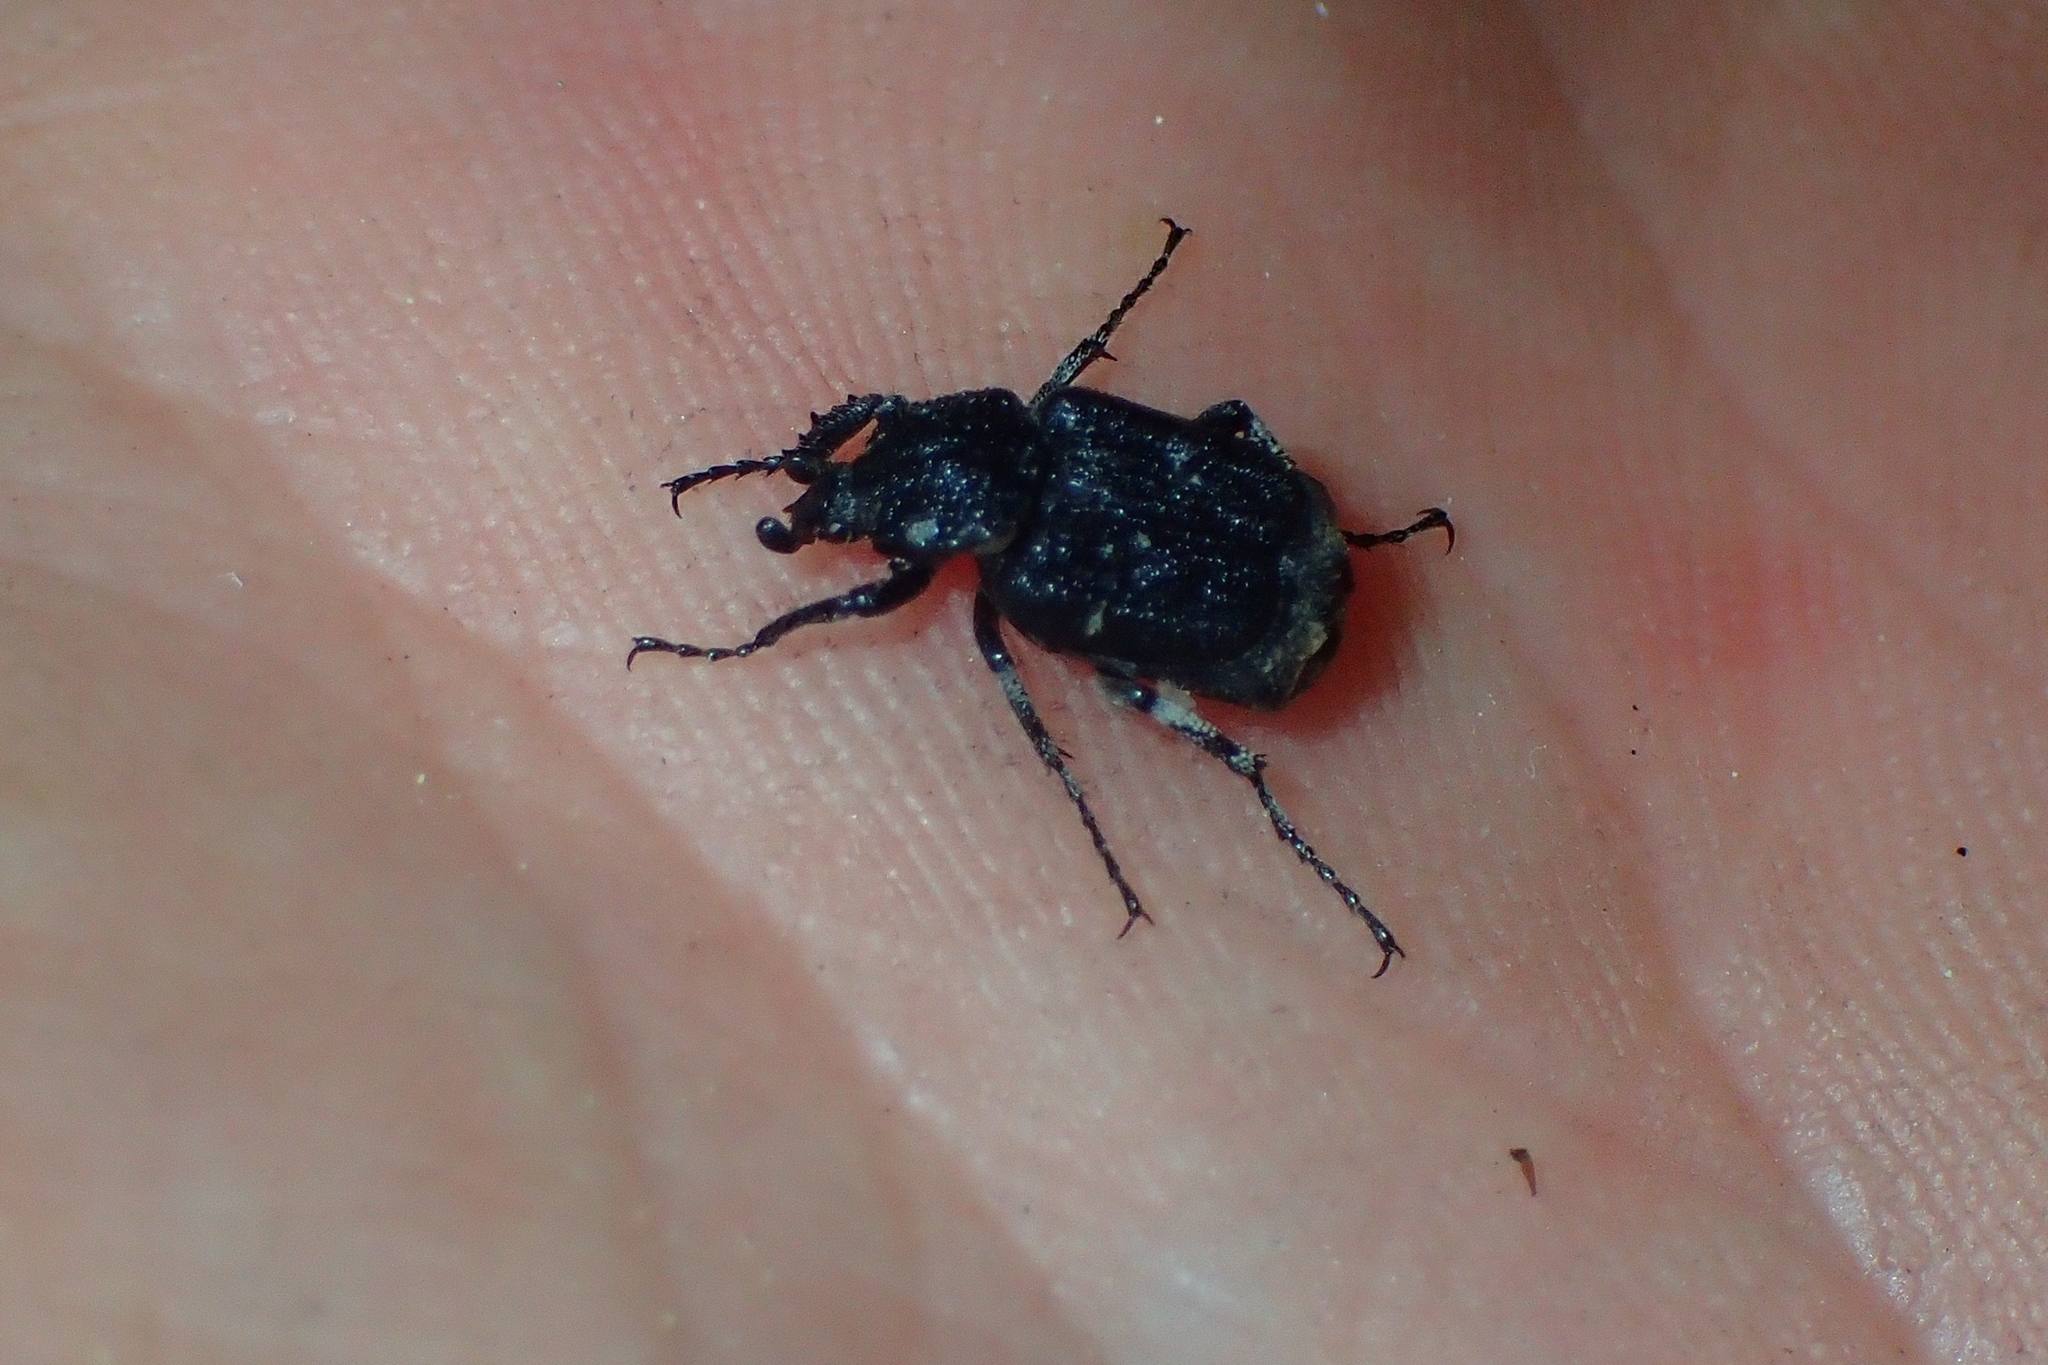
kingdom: Animalia
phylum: Arthropoda
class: Insecta
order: Coleoptera
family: Scarabaeidae
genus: Valgus
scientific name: Valgus hemipterus
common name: Bug flower chafer
